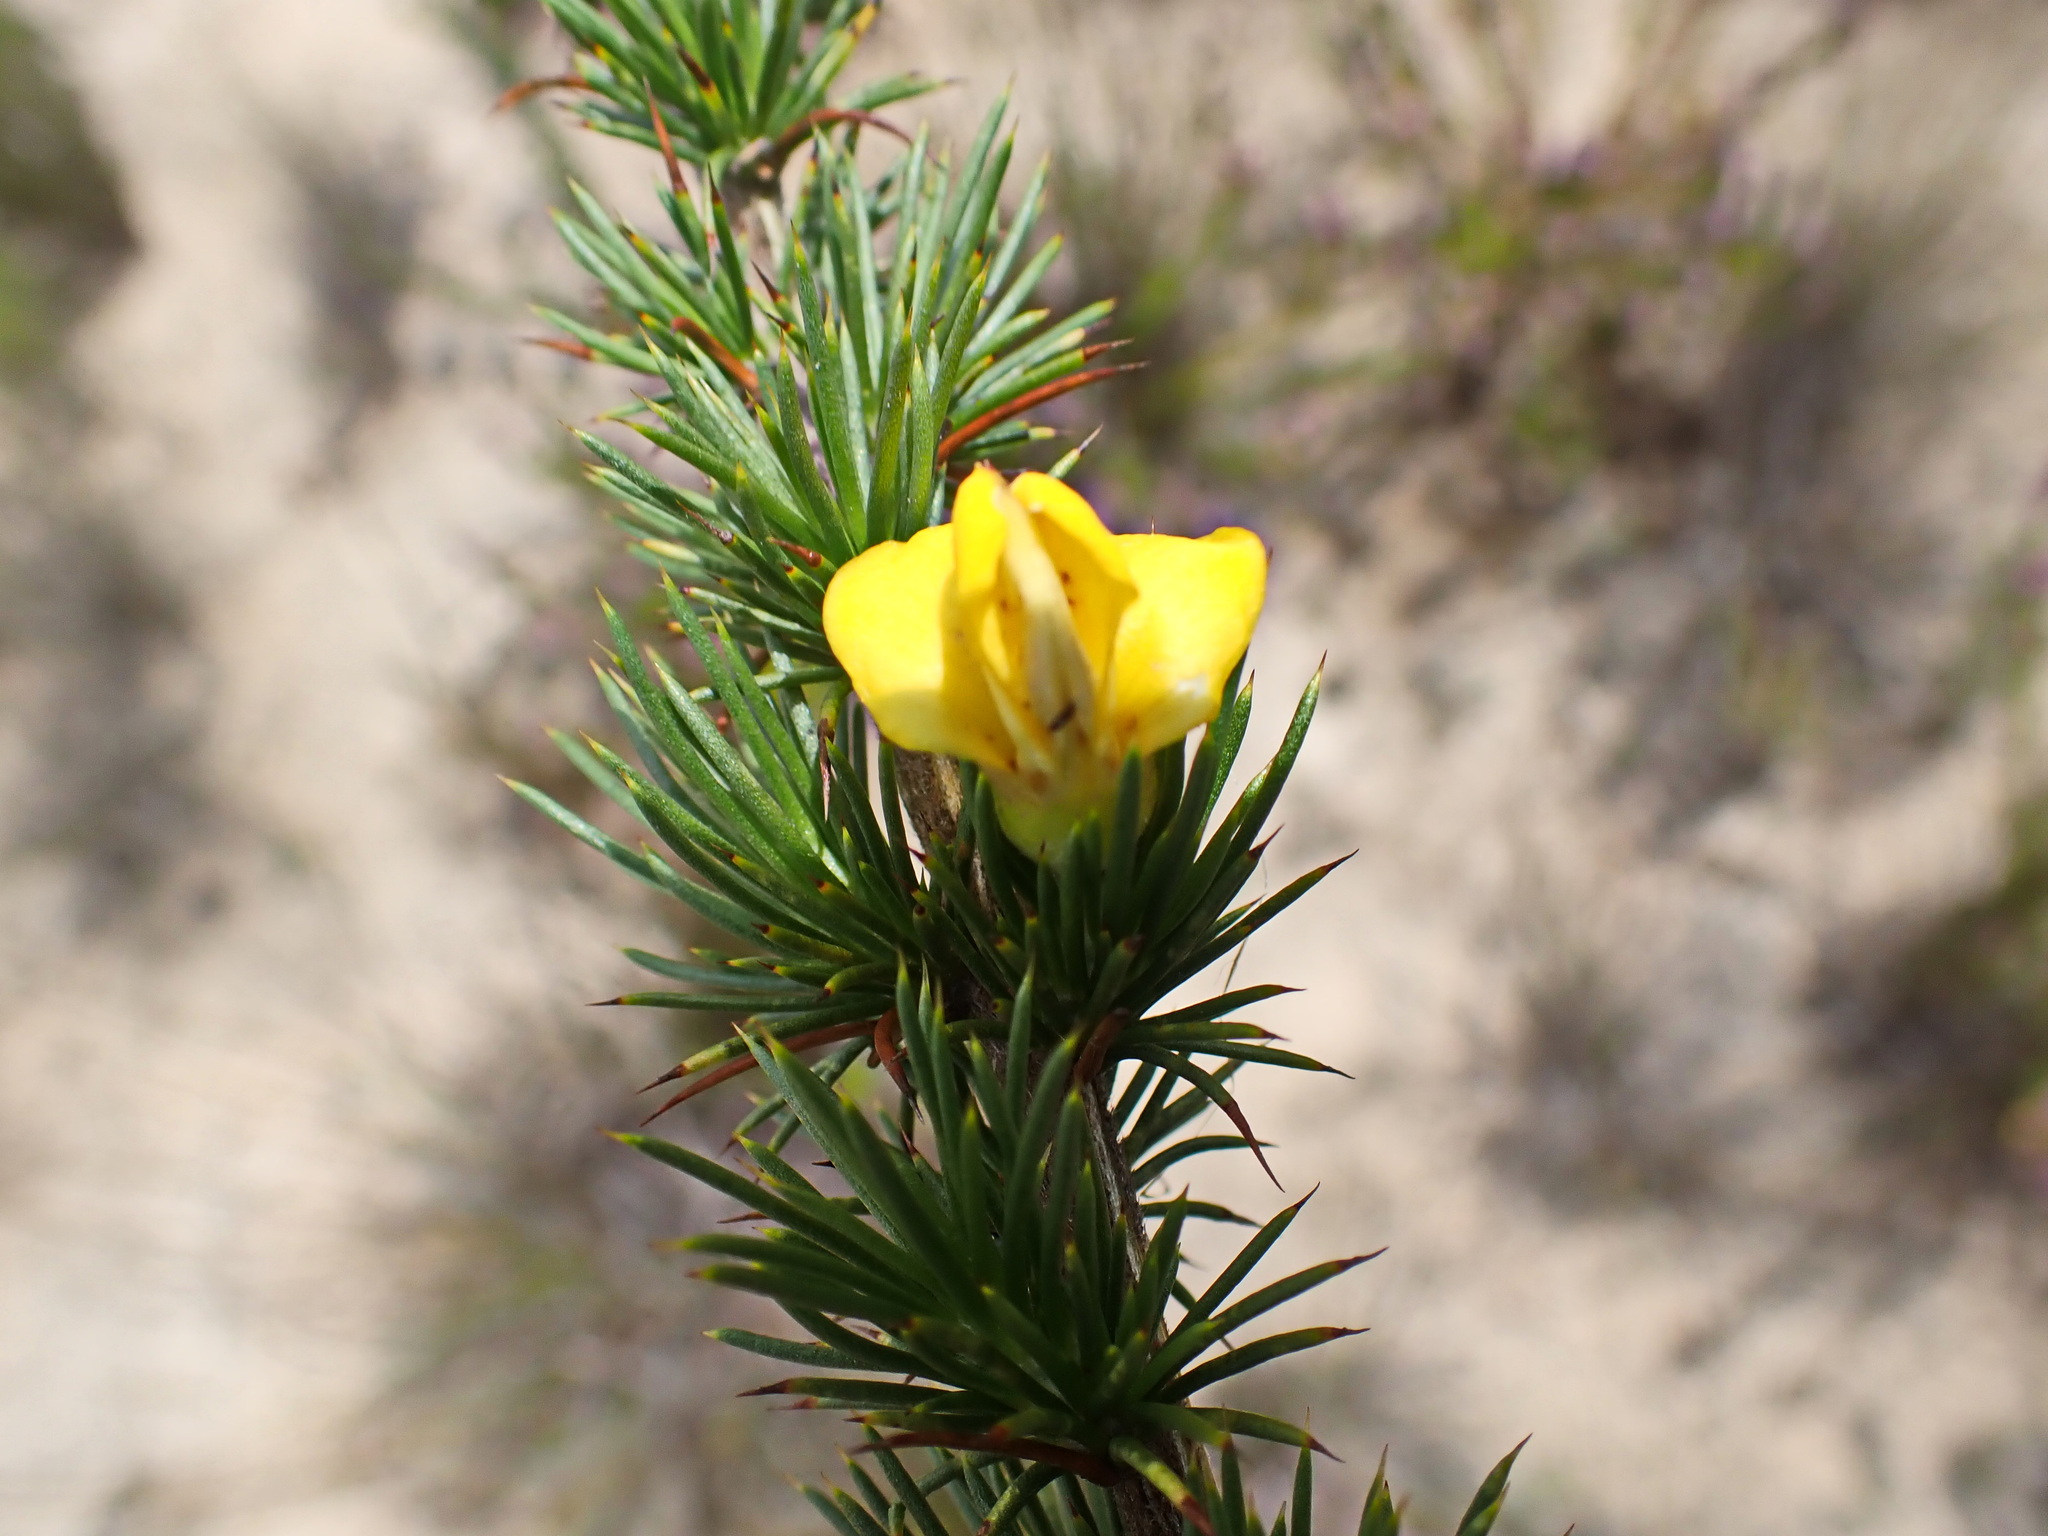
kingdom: Plantae
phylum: Tracheophyta
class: Magnoliopsida
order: Fabales
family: Fabaceae
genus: Aspalathus
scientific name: Aspalathus sceptrumaureum
